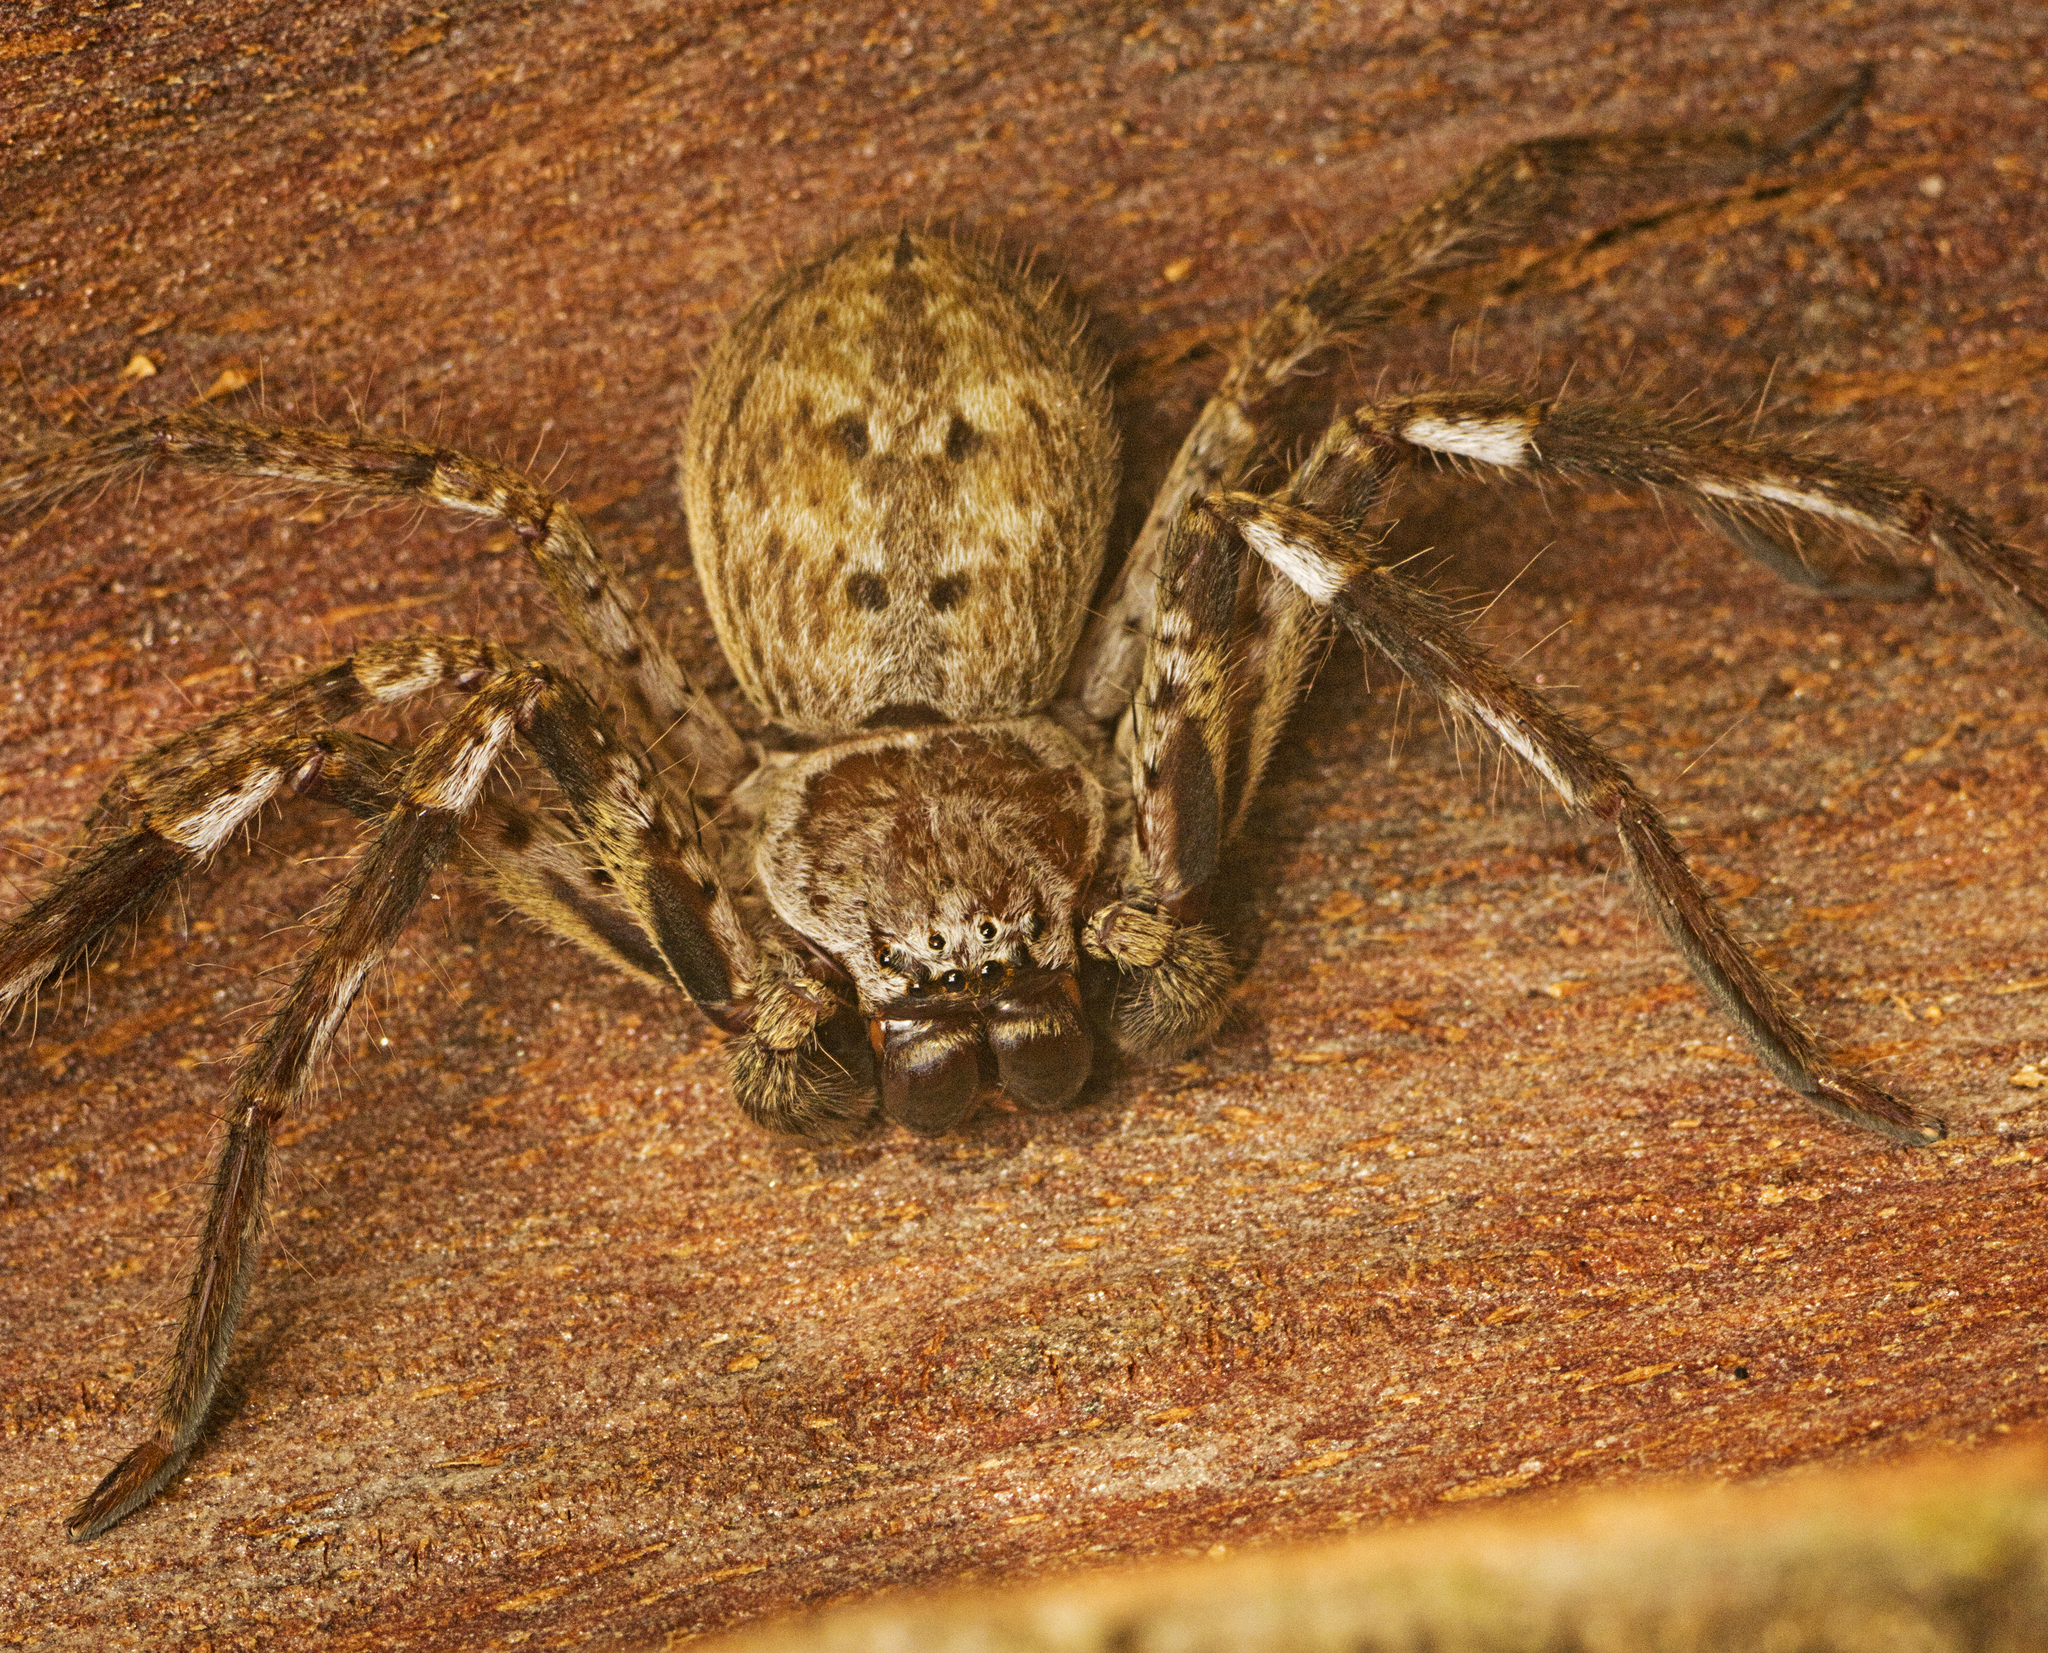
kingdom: Animalia
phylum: Arthropoda
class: Arachnida
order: Araneae
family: Sparassidae
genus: Isopeda
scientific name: Isopeda vasta
